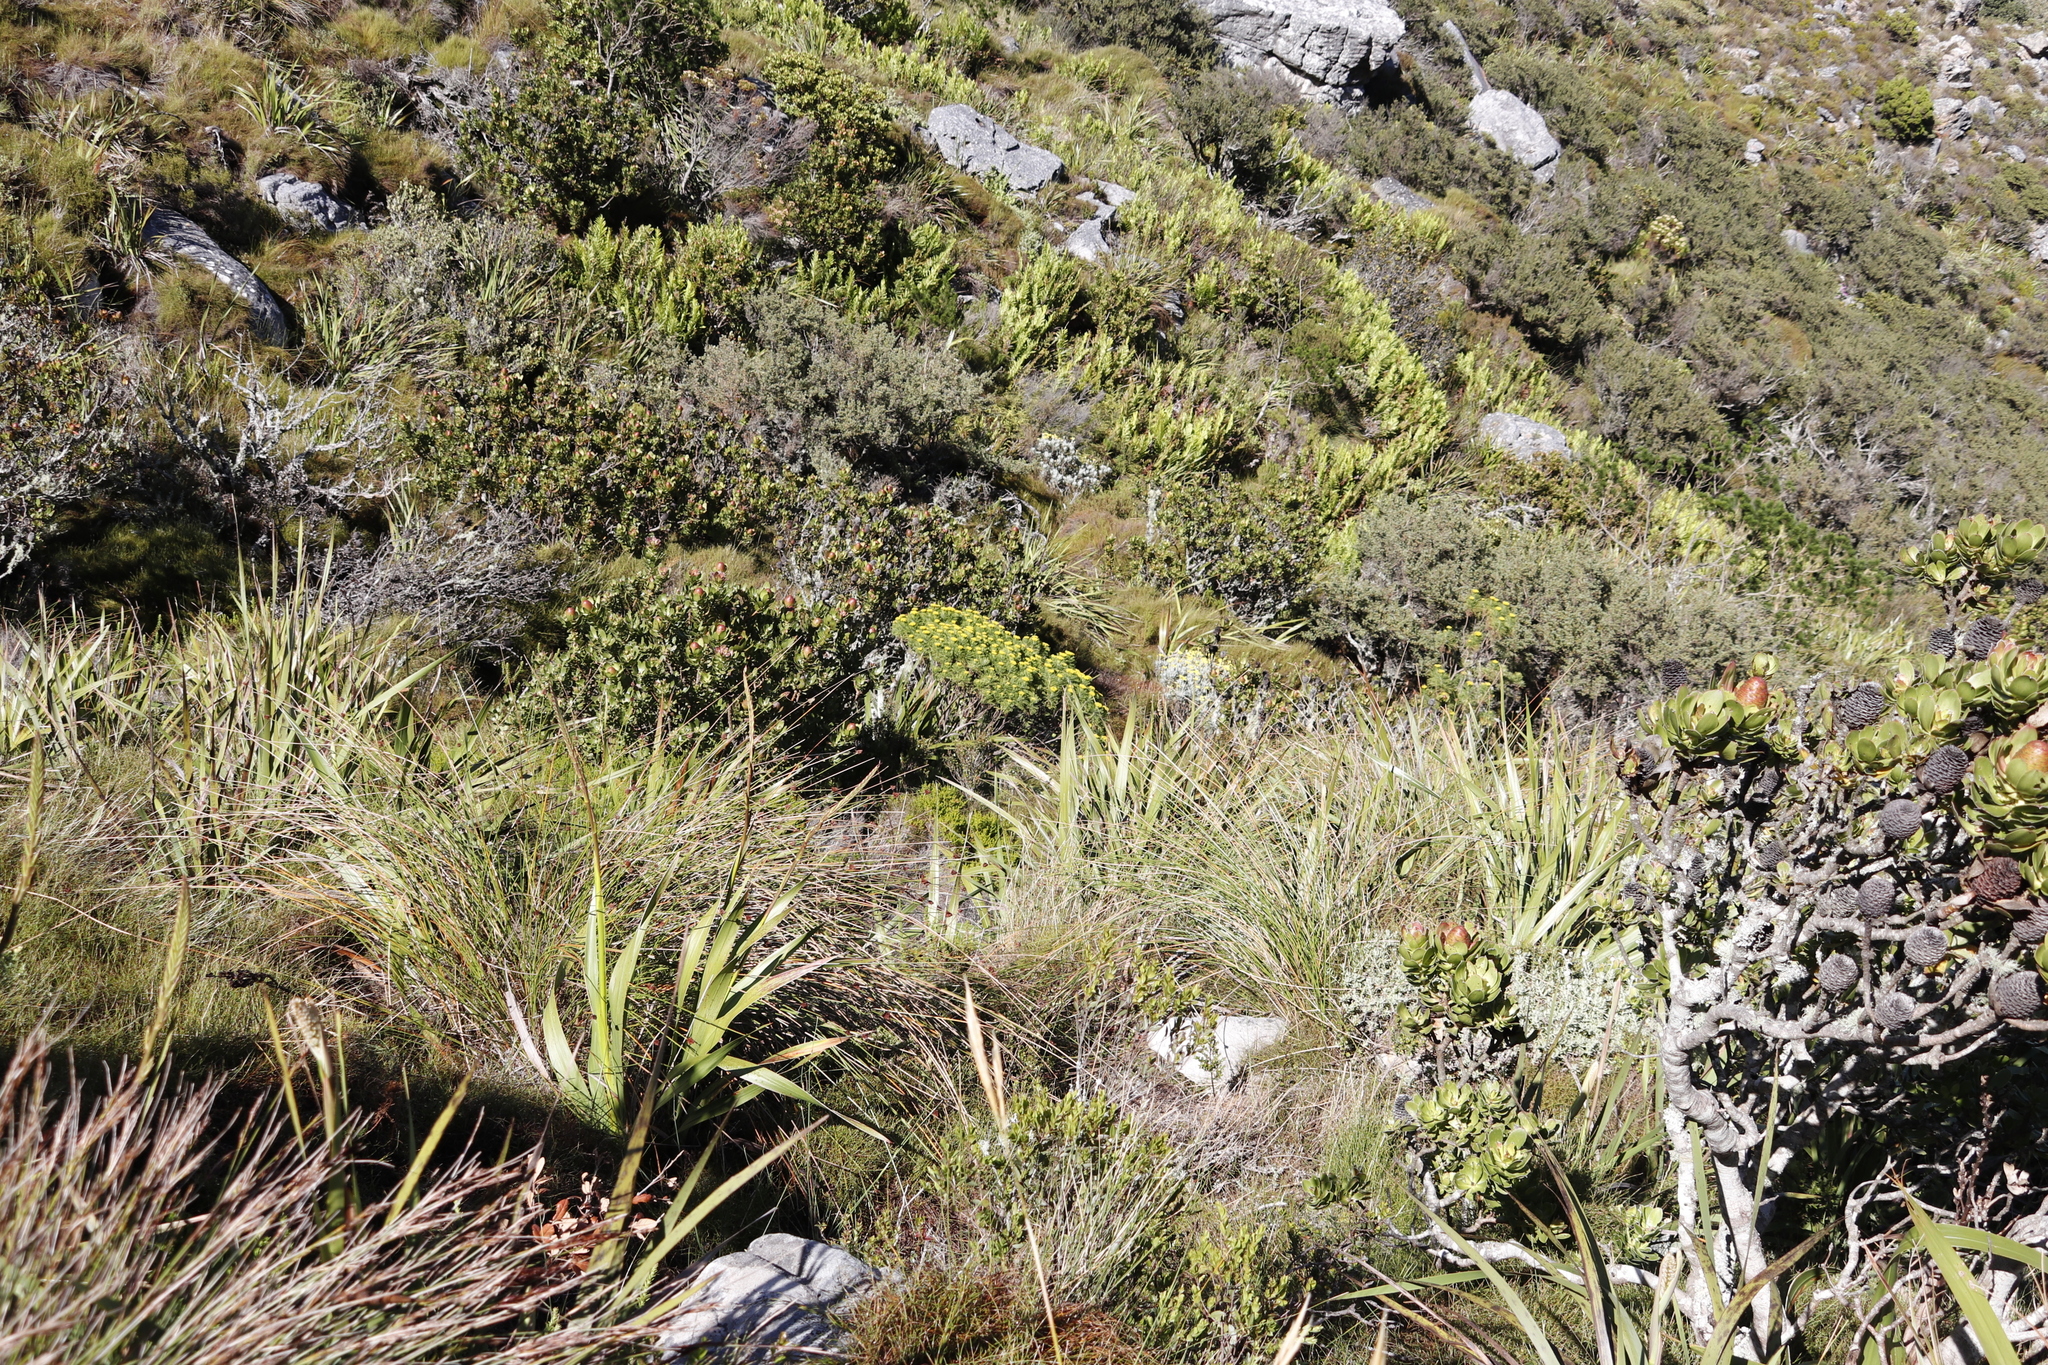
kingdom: Plantae
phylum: Tracheophyta
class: Magnoliopsida
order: Asterales
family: Asteraceae
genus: Euryops
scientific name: Euryops pectinatus
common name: Gray-leaf euryops
